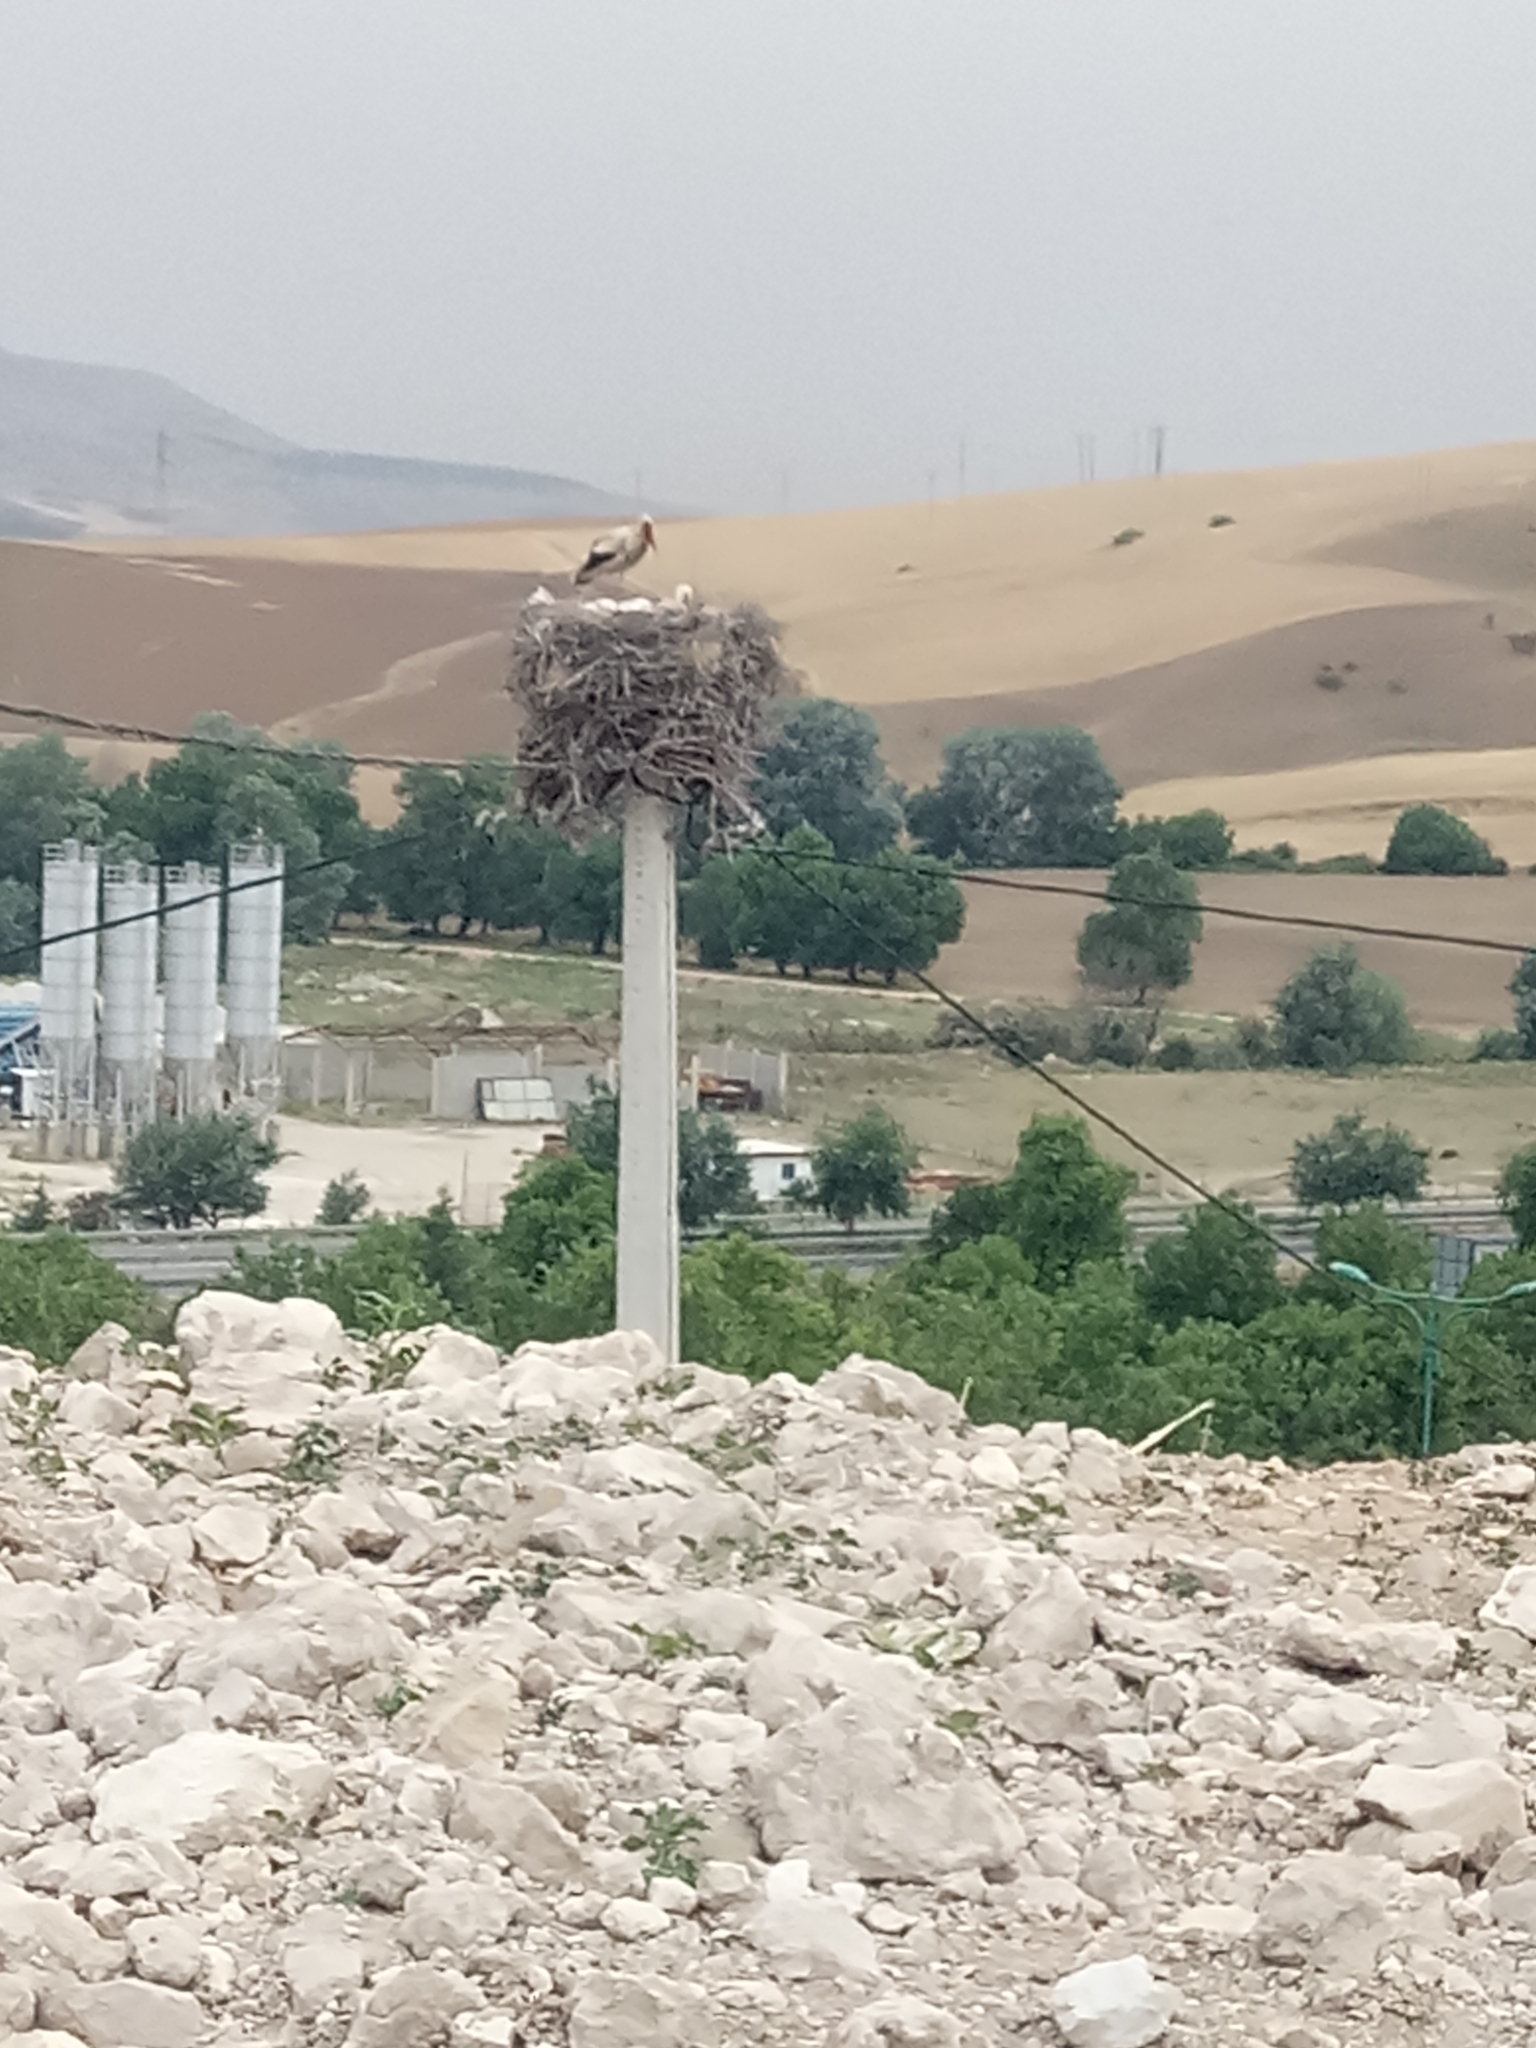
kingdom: Animalia
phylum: Chordata
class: Aves
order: Ciconiiformes
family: Ciconiidae
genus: Ciconia
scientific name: Ciconia ciconia
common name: White stork
